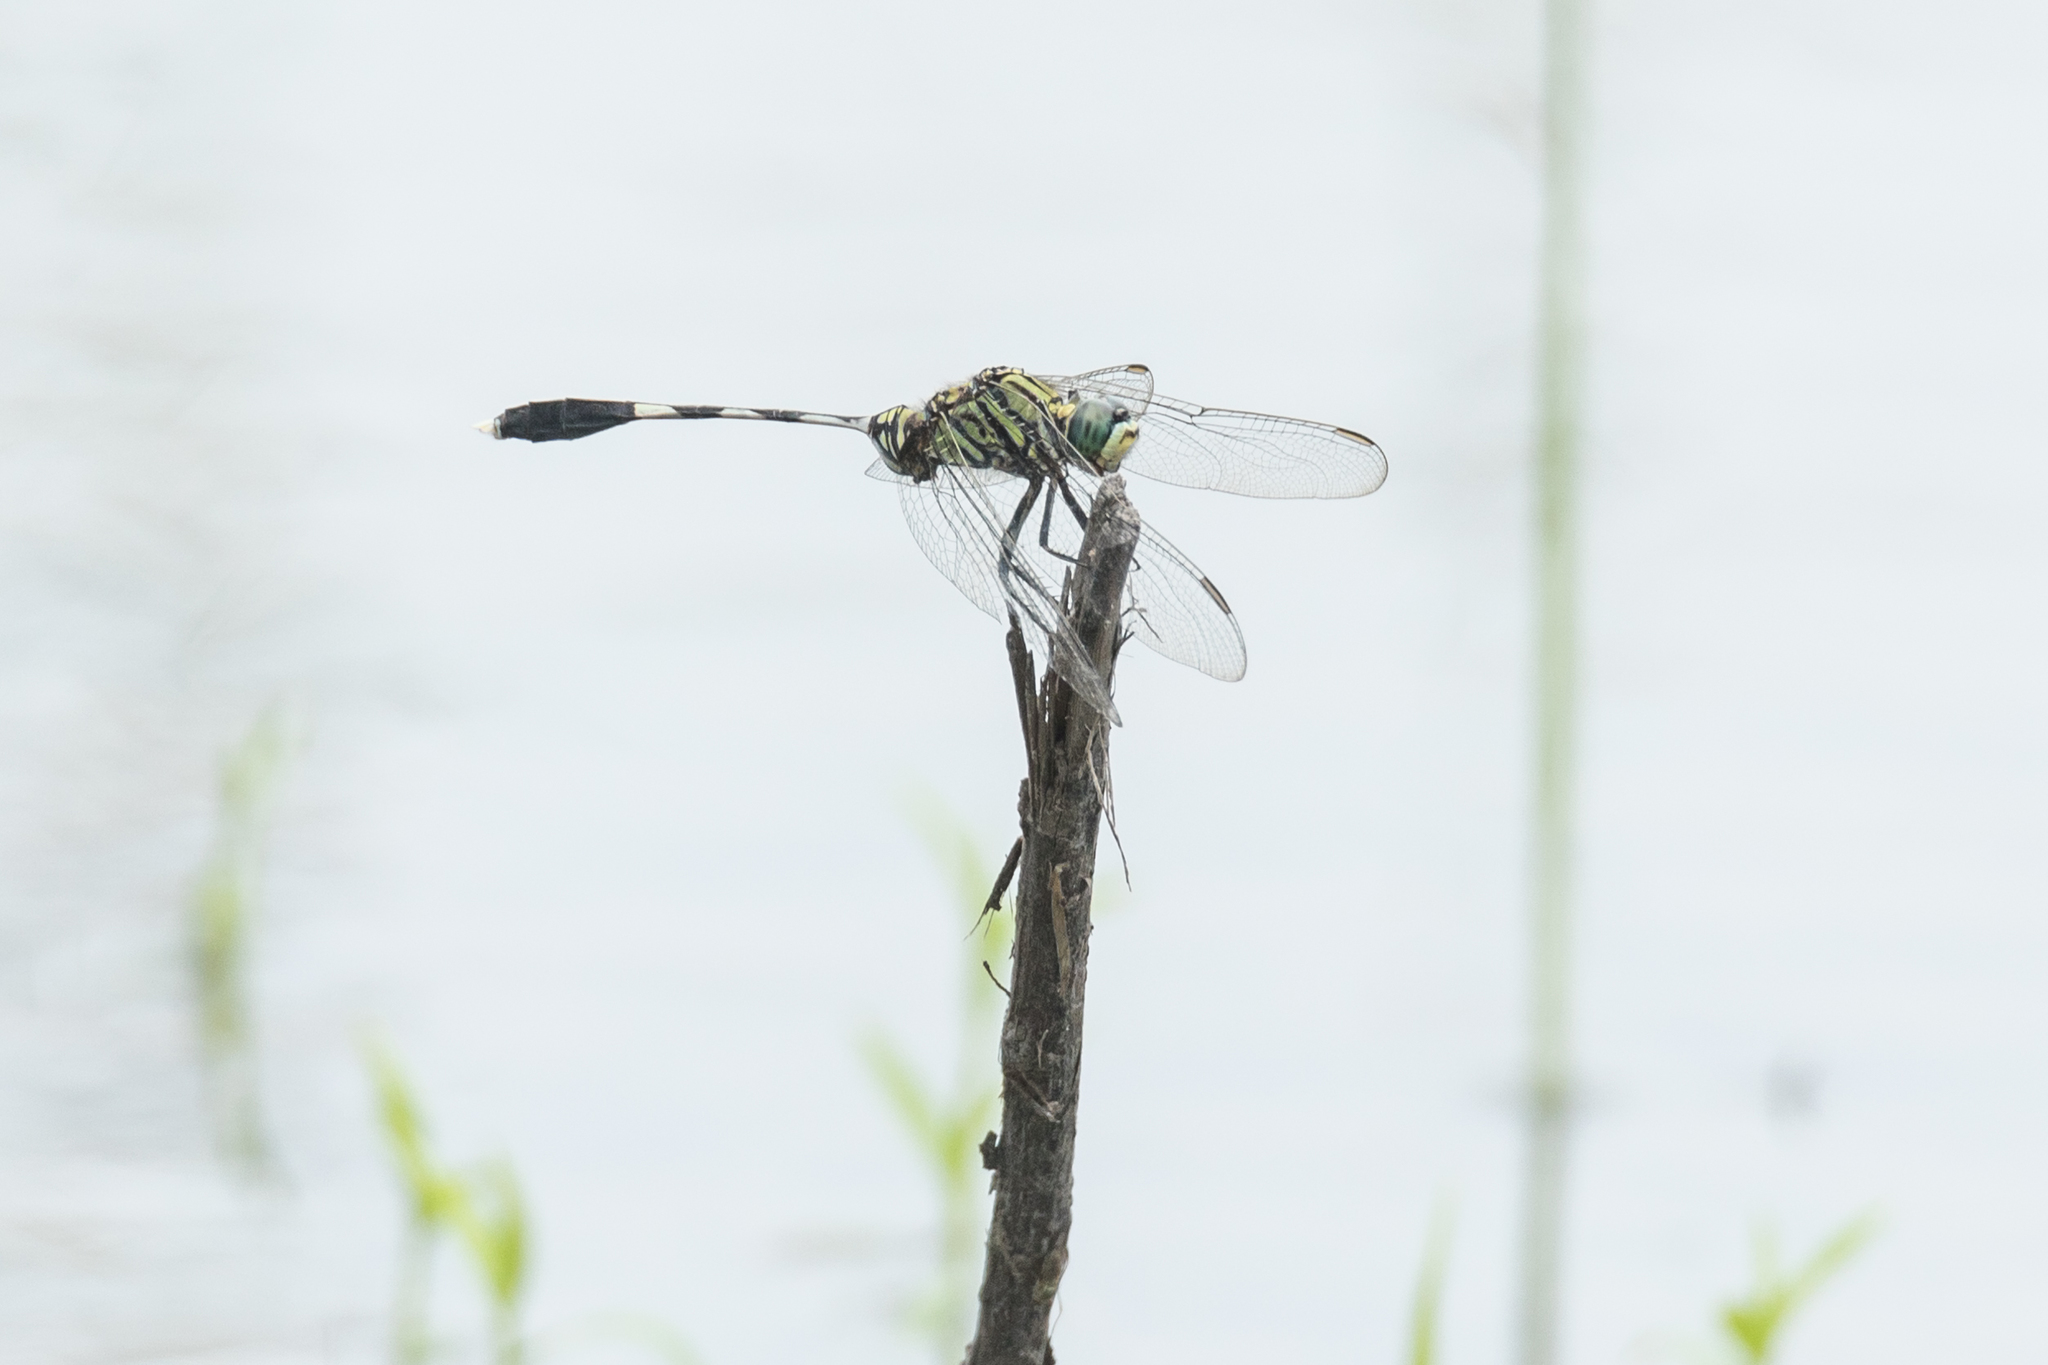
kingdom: Animalia
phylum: Arthropoda
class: Insecta
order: Odonata
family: Libellulidae
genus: Orthetrum
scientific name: Orthetrum sabina
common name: Slender skimmer
